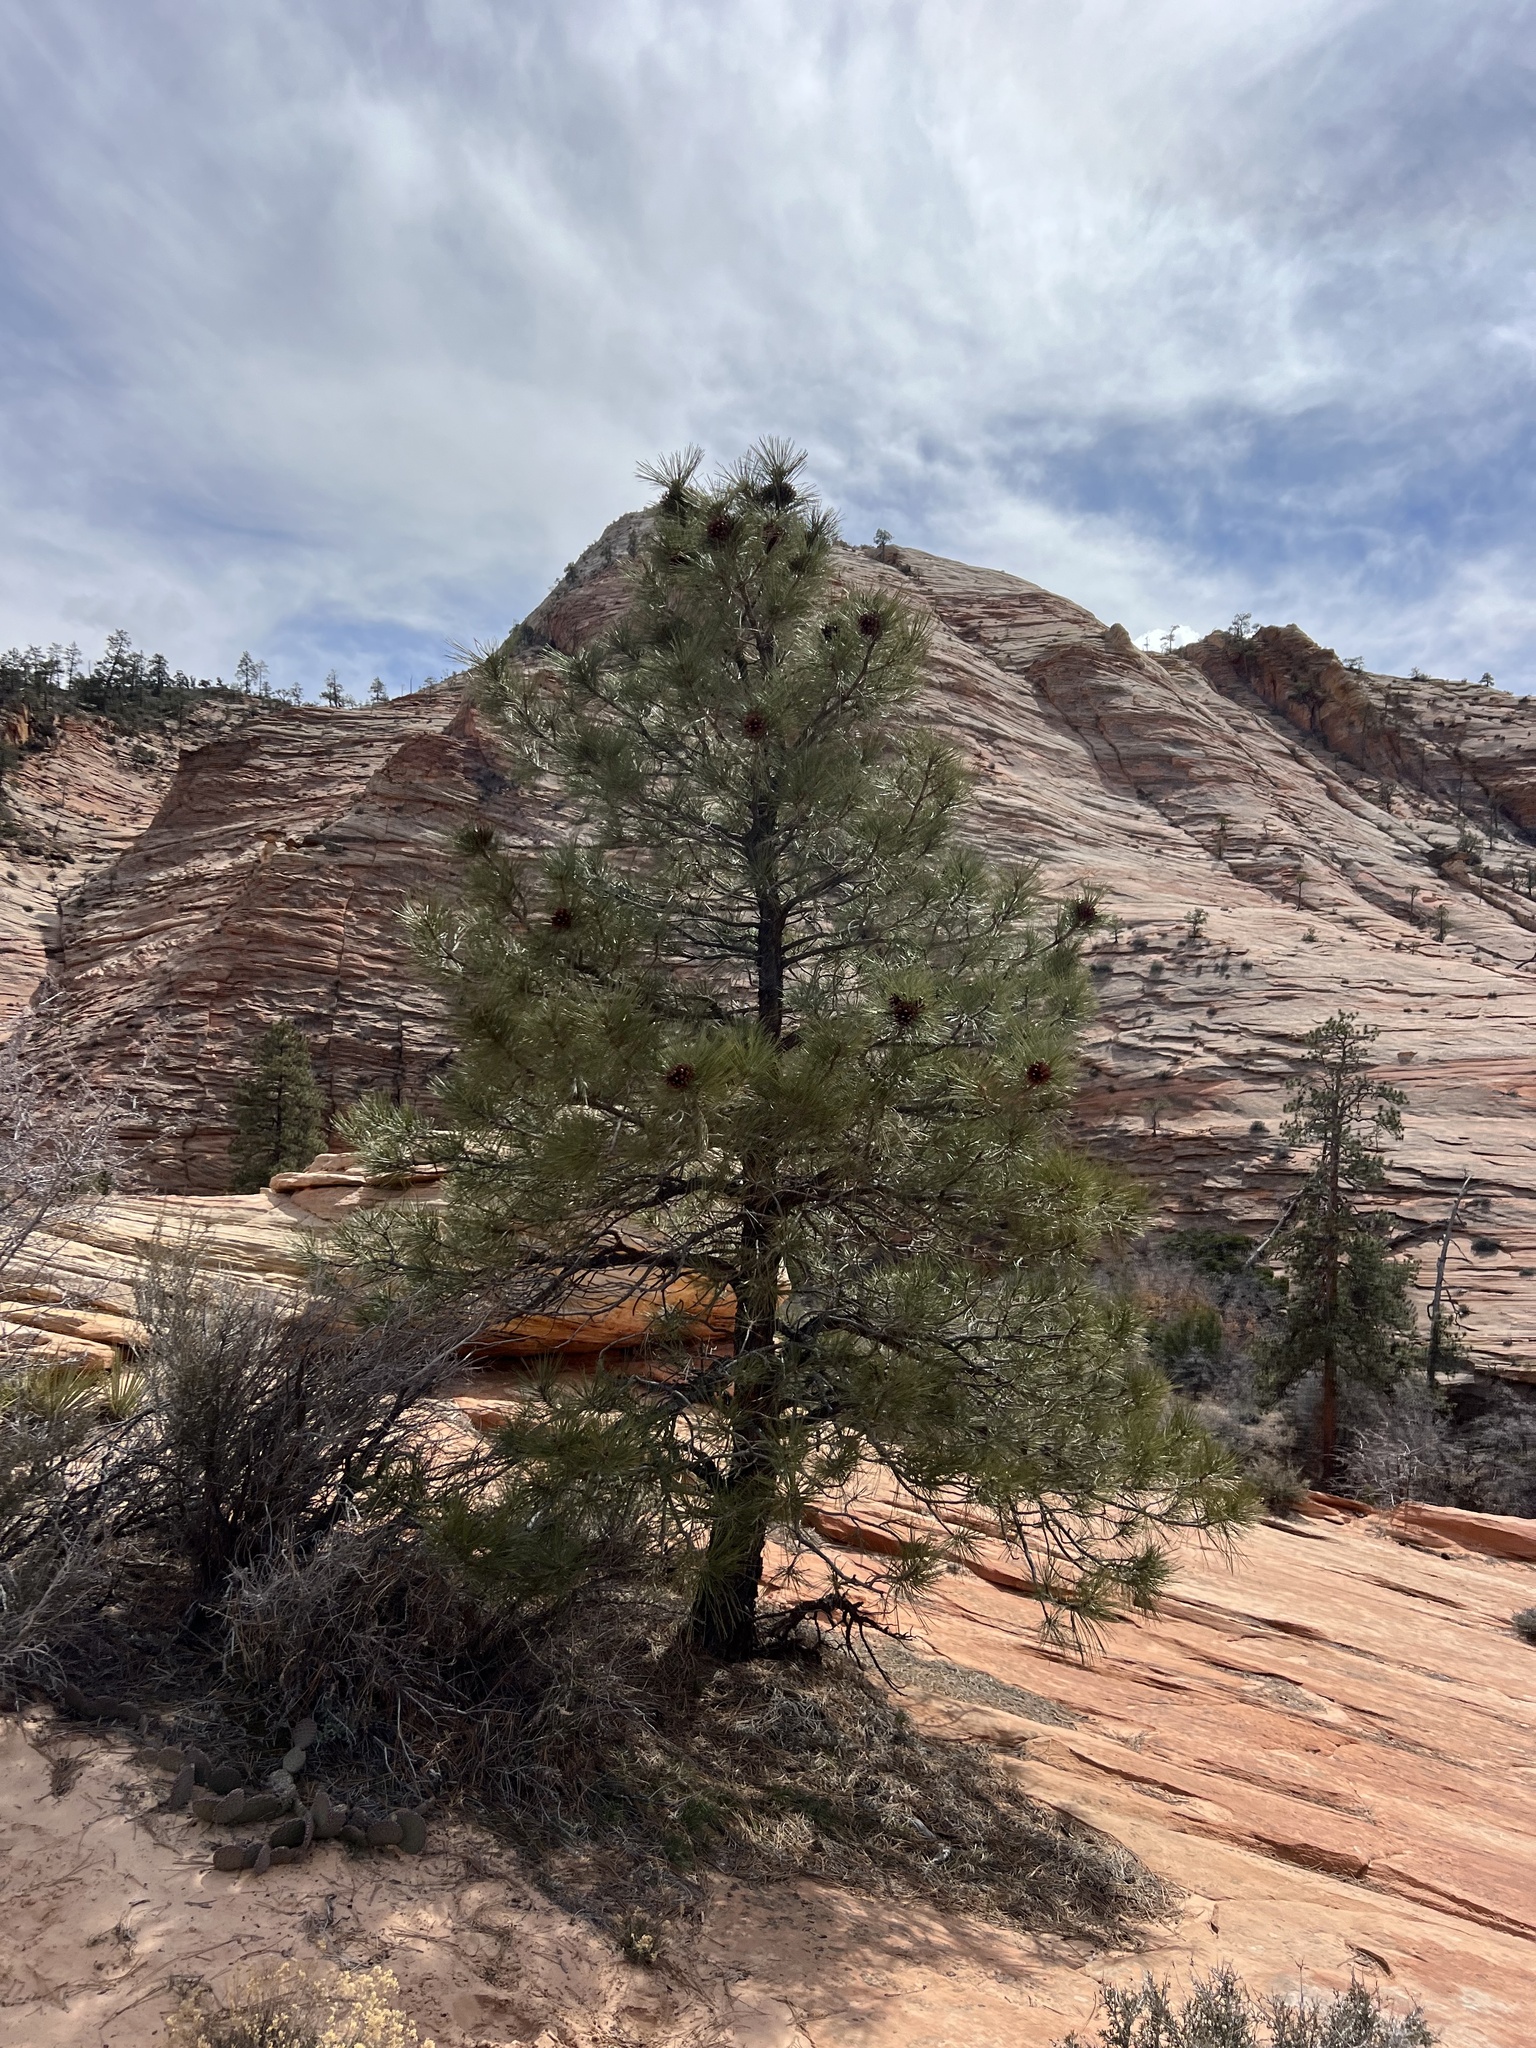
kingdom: Plantae
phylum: Tracheophyta
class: Pinopsida
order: Pinales
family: Pinaceae
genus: Pinus
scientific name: Pinus ponderosa
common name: Western yellow-pine
